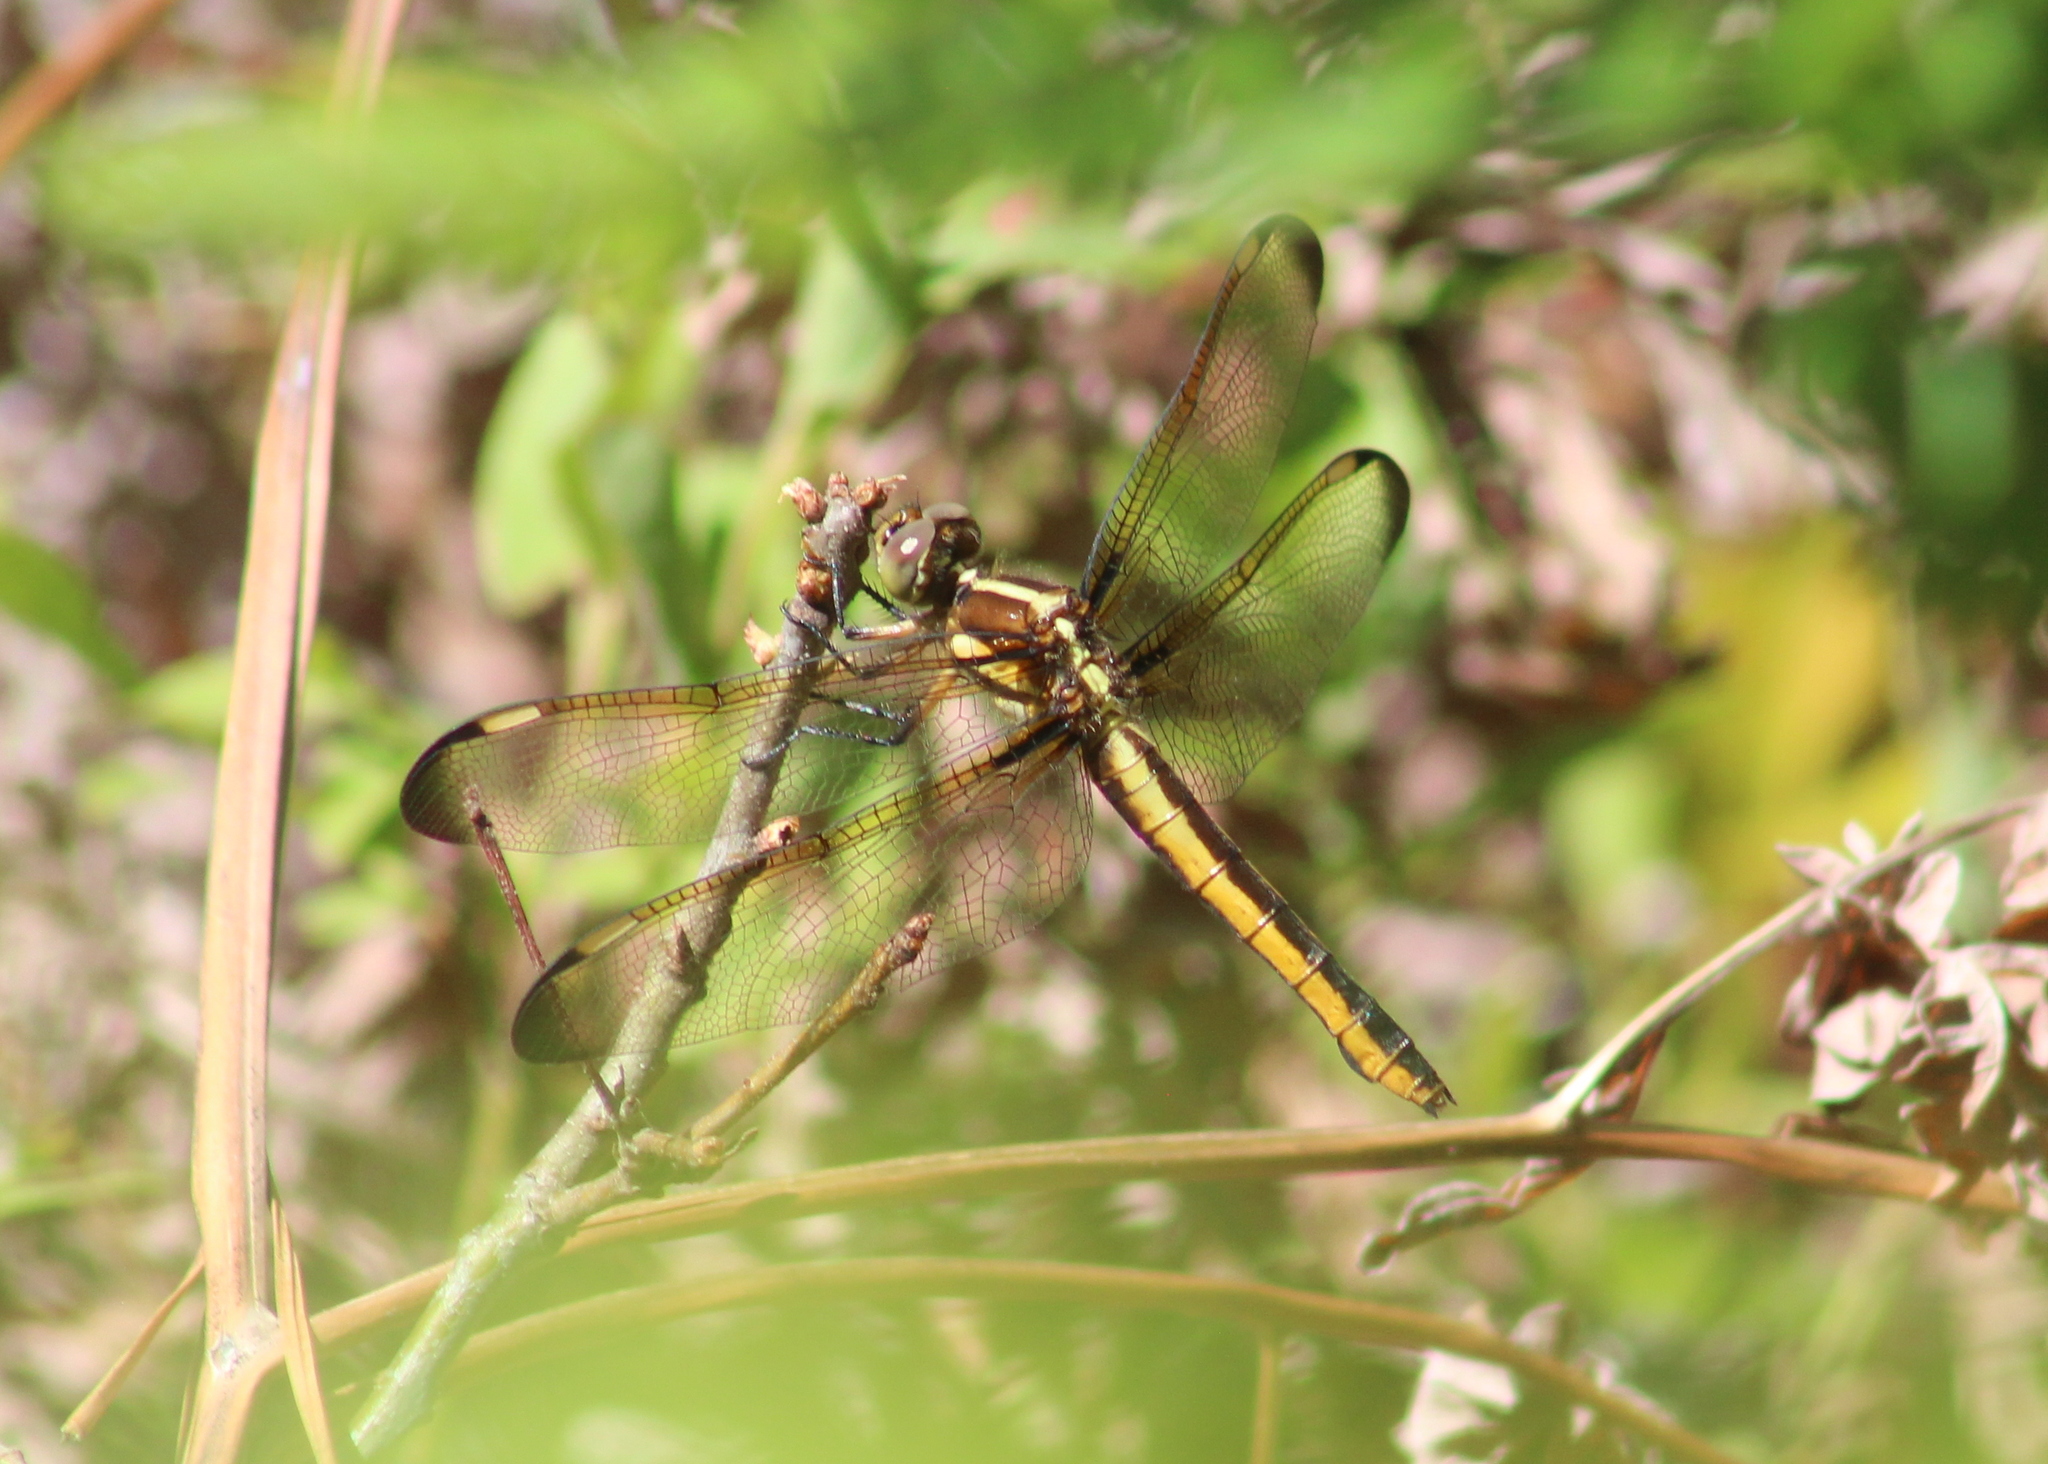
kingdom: Animalia
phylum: Arthropoda
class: Insecta
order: Odonata
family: Libellulidae
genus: Libellula
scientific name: Libellula cyanea
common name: Spangled skimmer
